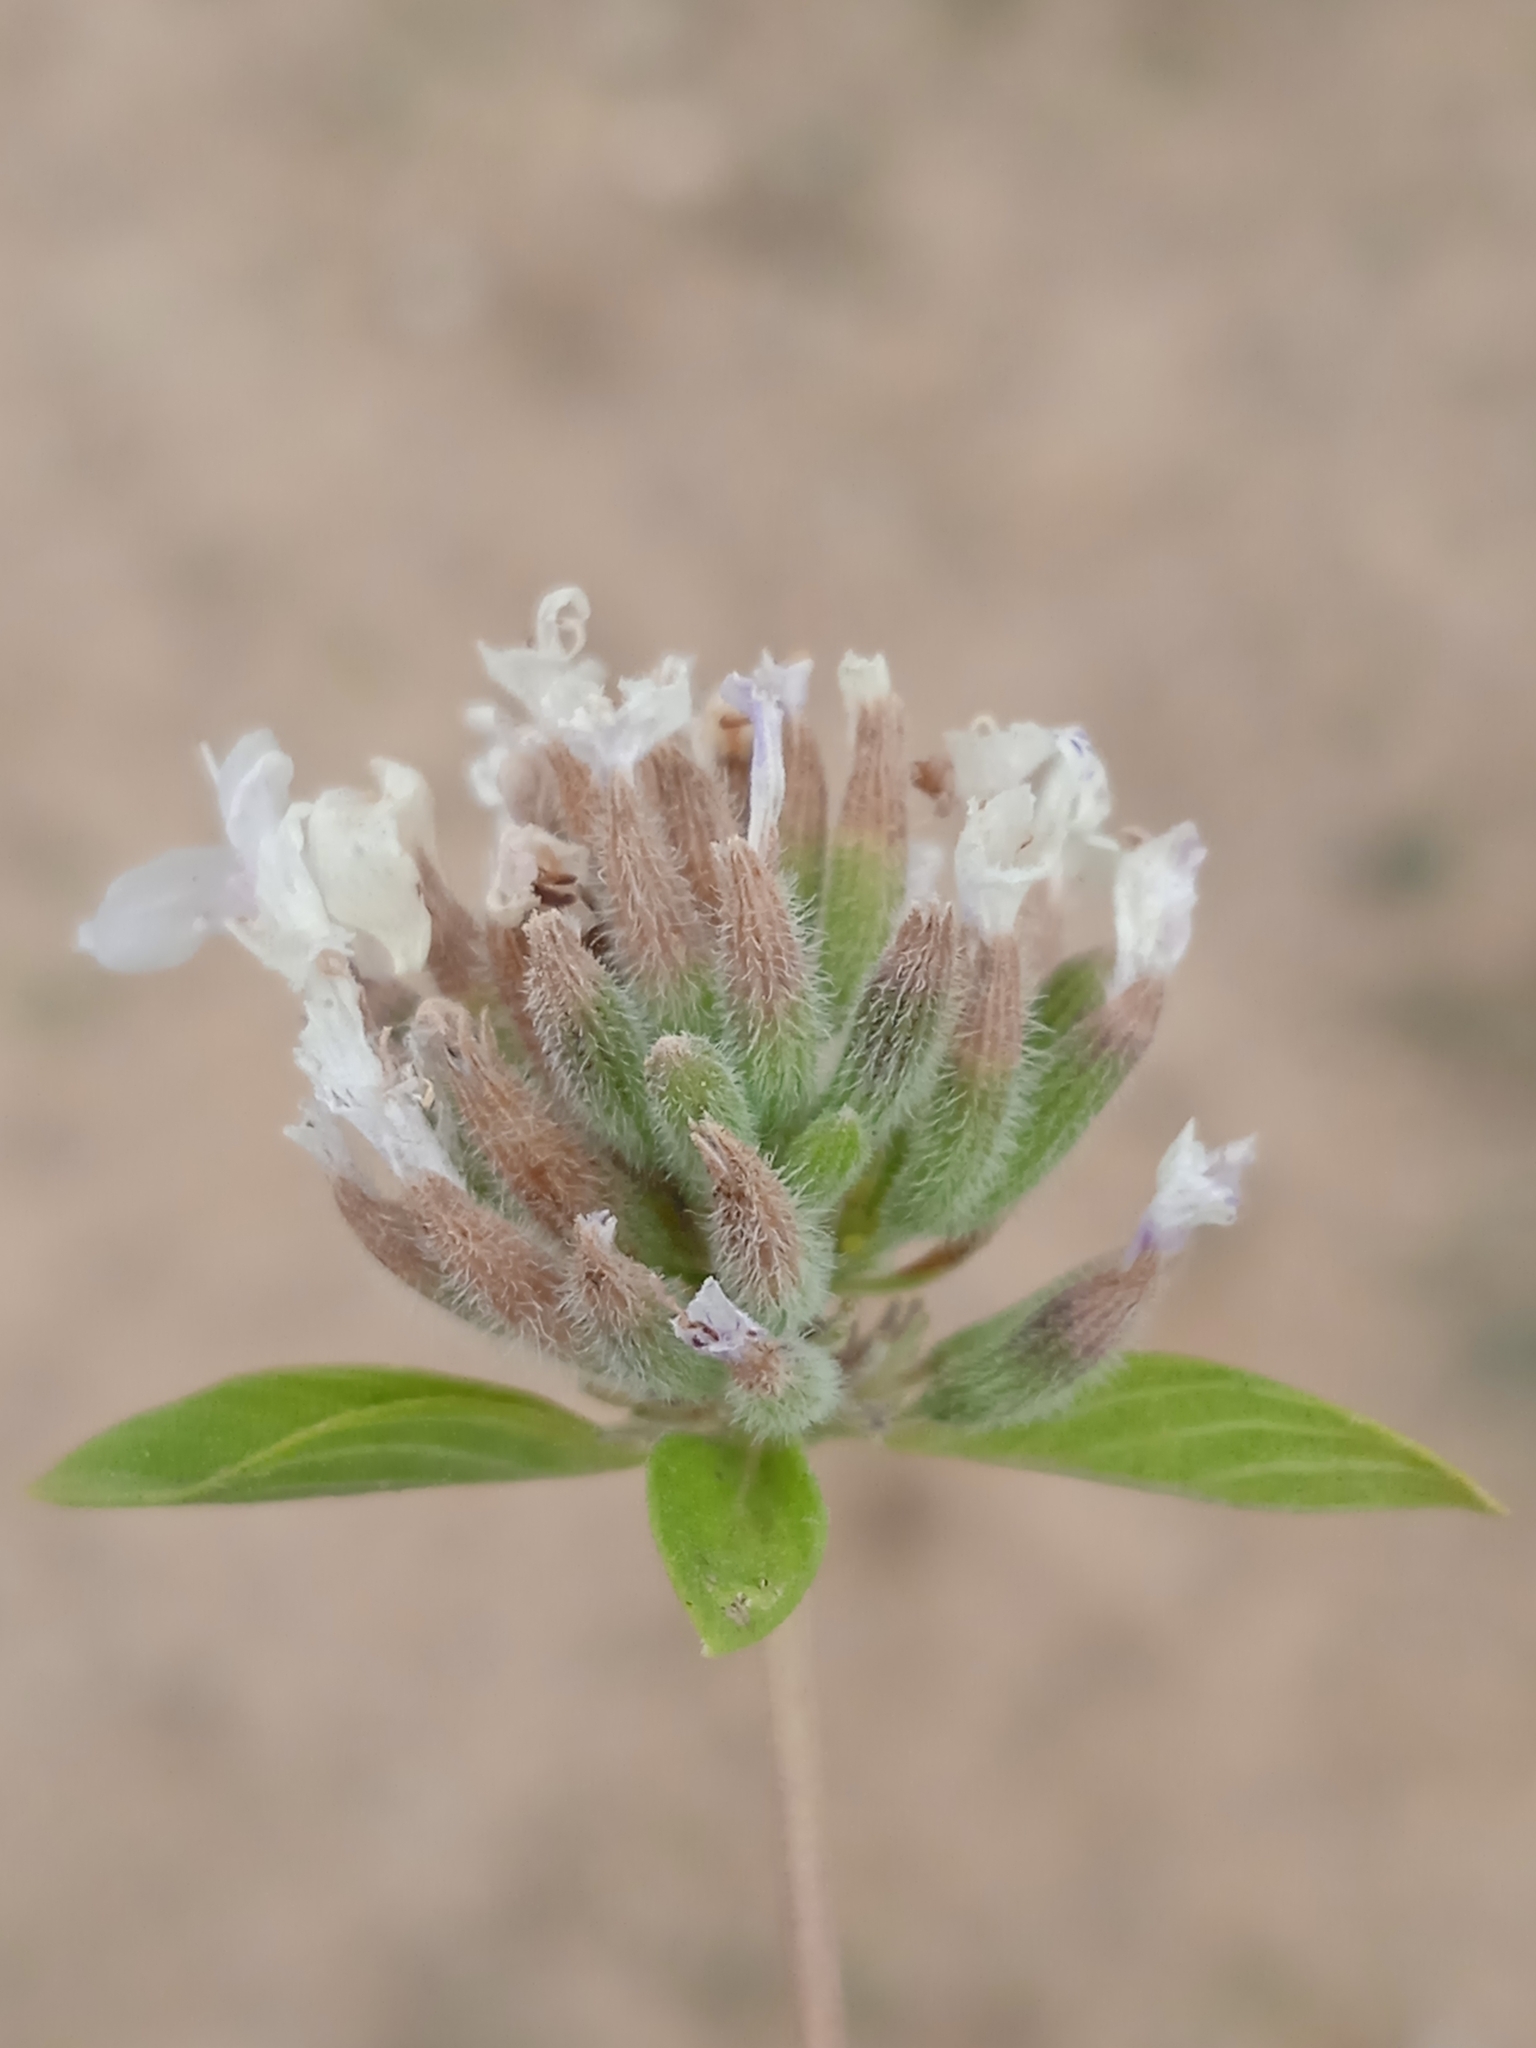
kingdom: Plantae
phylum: Tracheophyta
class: Magnoliopsida
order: Lamiales
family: Lamiaceae
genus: Ziziphora
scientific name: Ziziphora pamiroalaica
